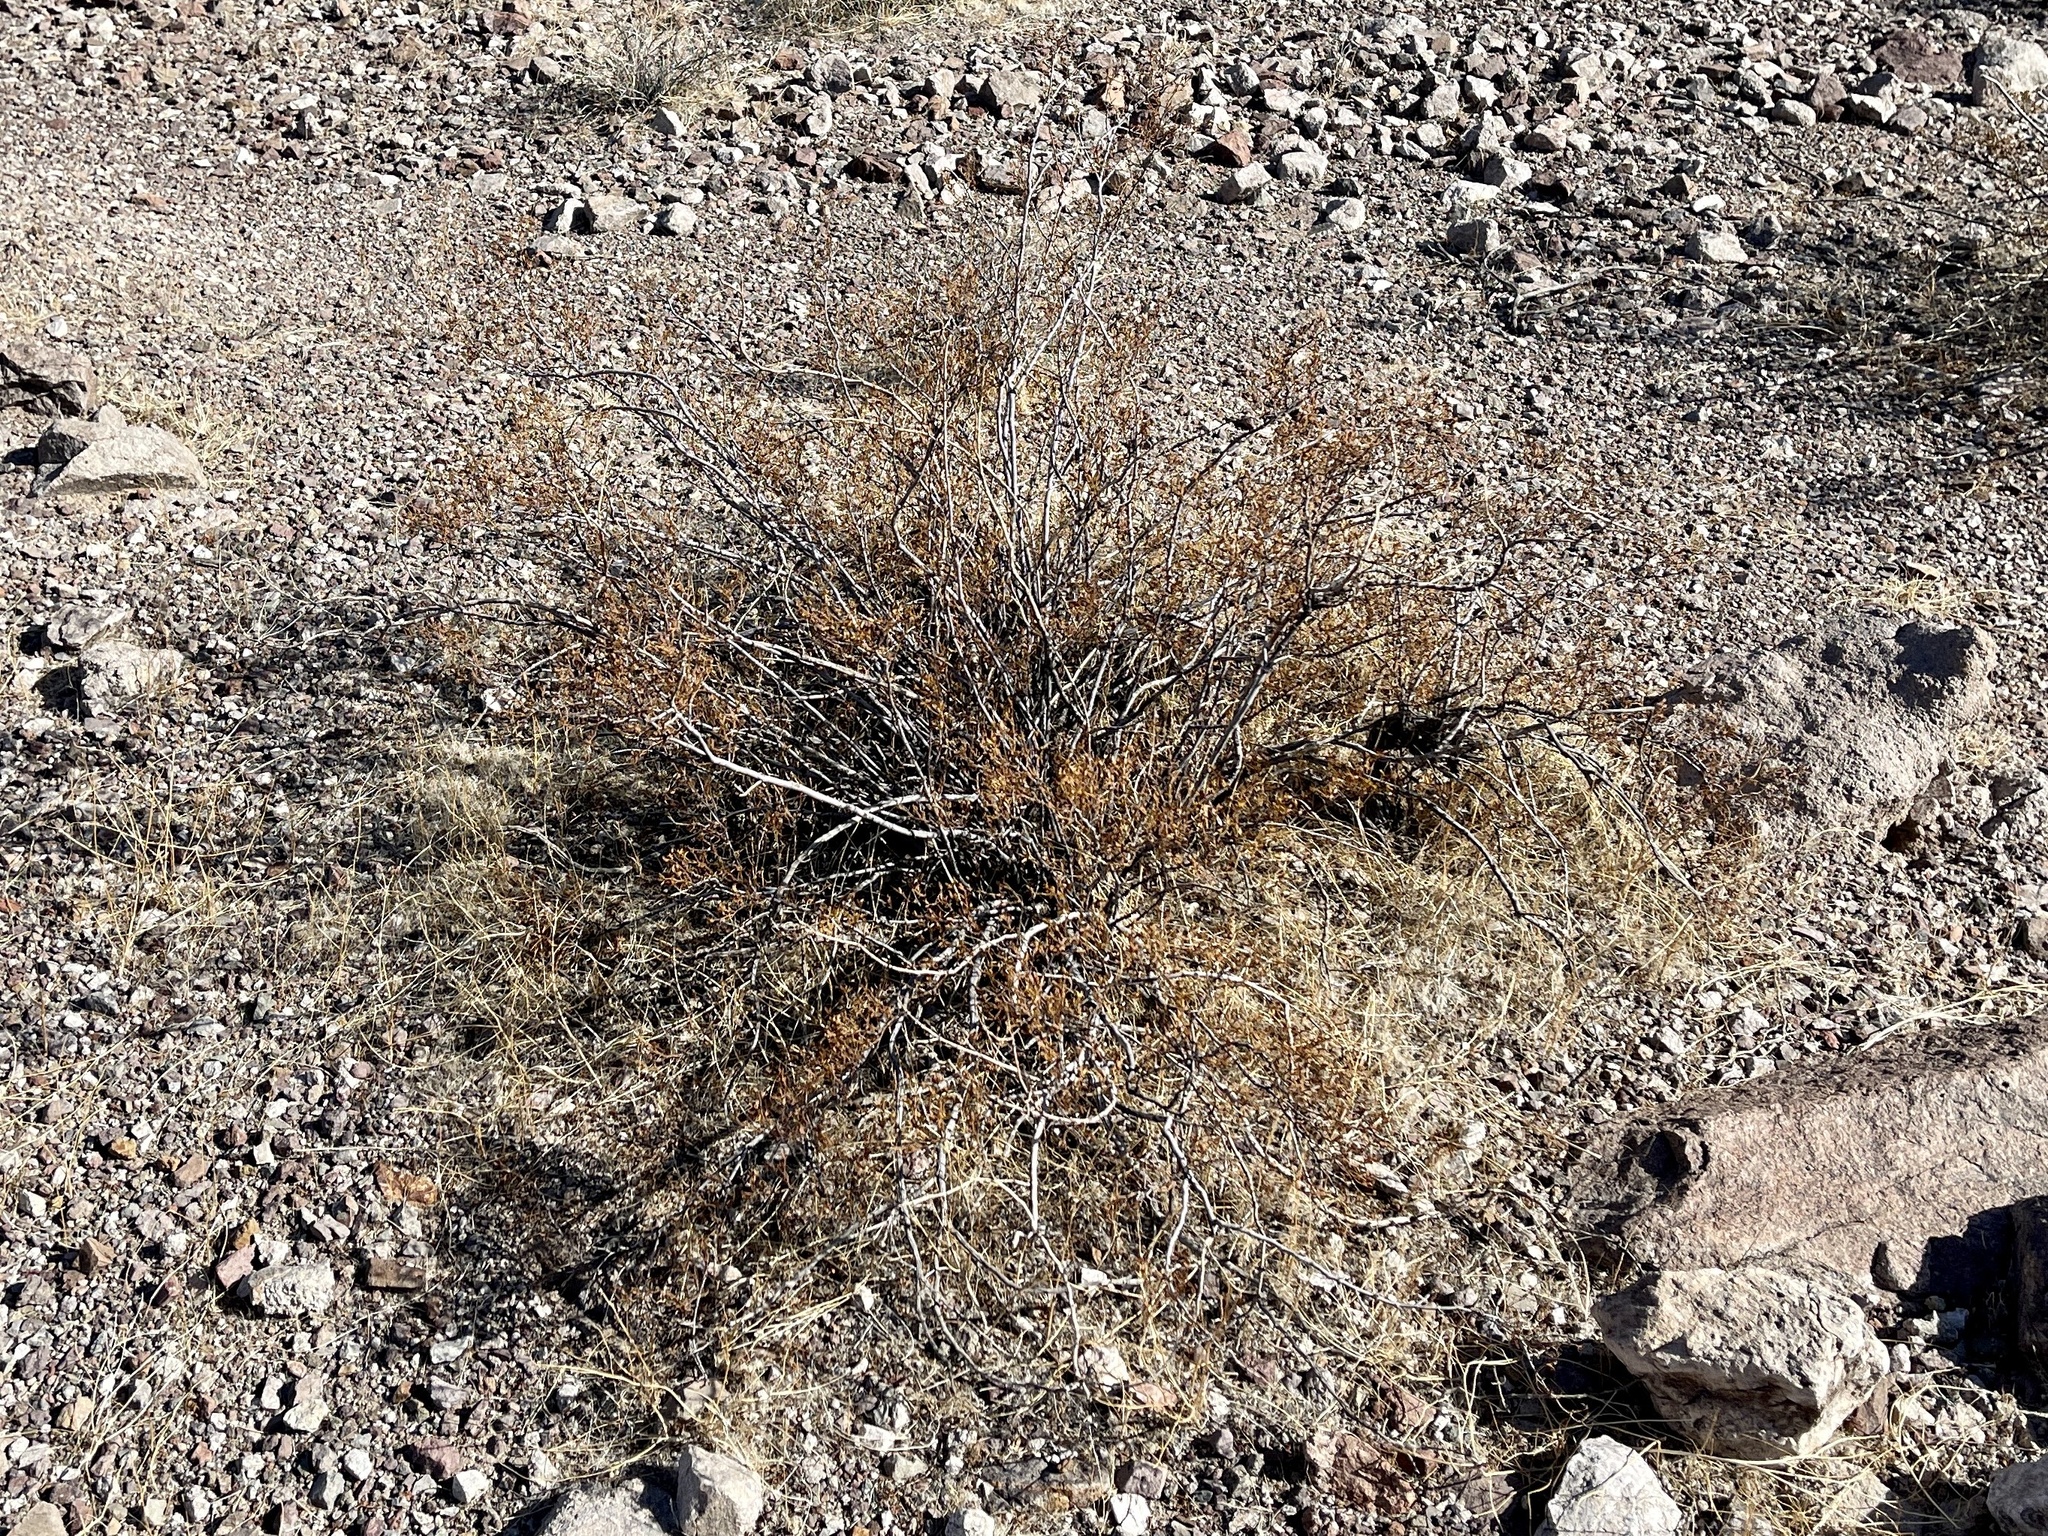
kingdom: Plantae
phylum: Tracheophyta
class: Magnoliopsida
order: Zygophyllales
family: Zygophyllaceae
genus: Larrea
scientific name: Larrea tridentata
